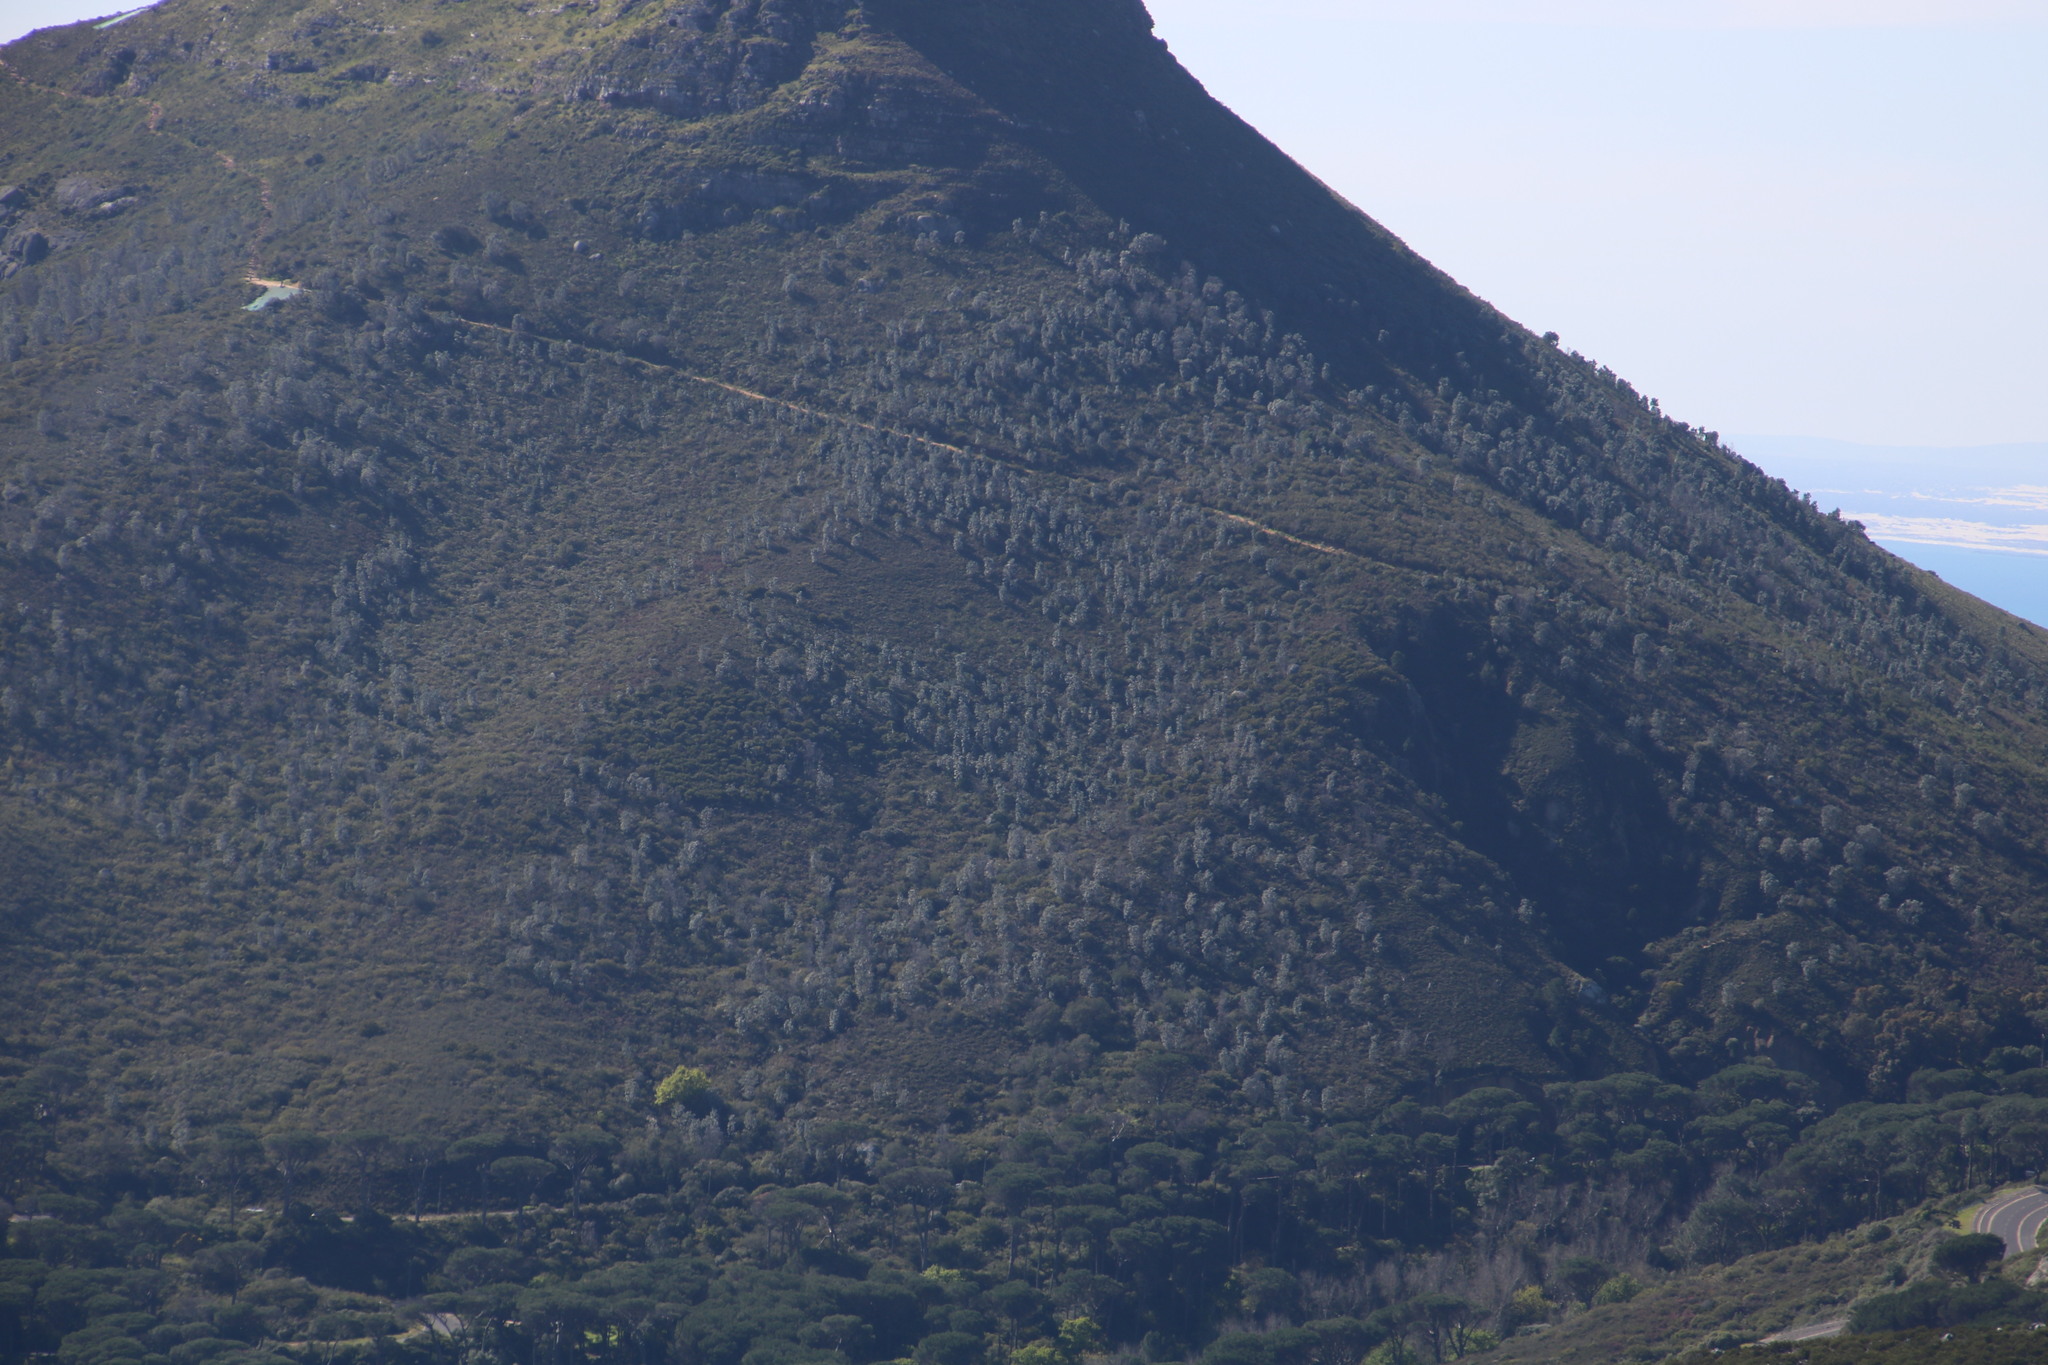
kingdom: Plantae
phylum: Tracheophyta
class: Magnoliopsida
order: Proteales
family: Proteaceae
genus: Leucadendron
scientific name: Leucadendron argenteum
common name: Cape silver tree
